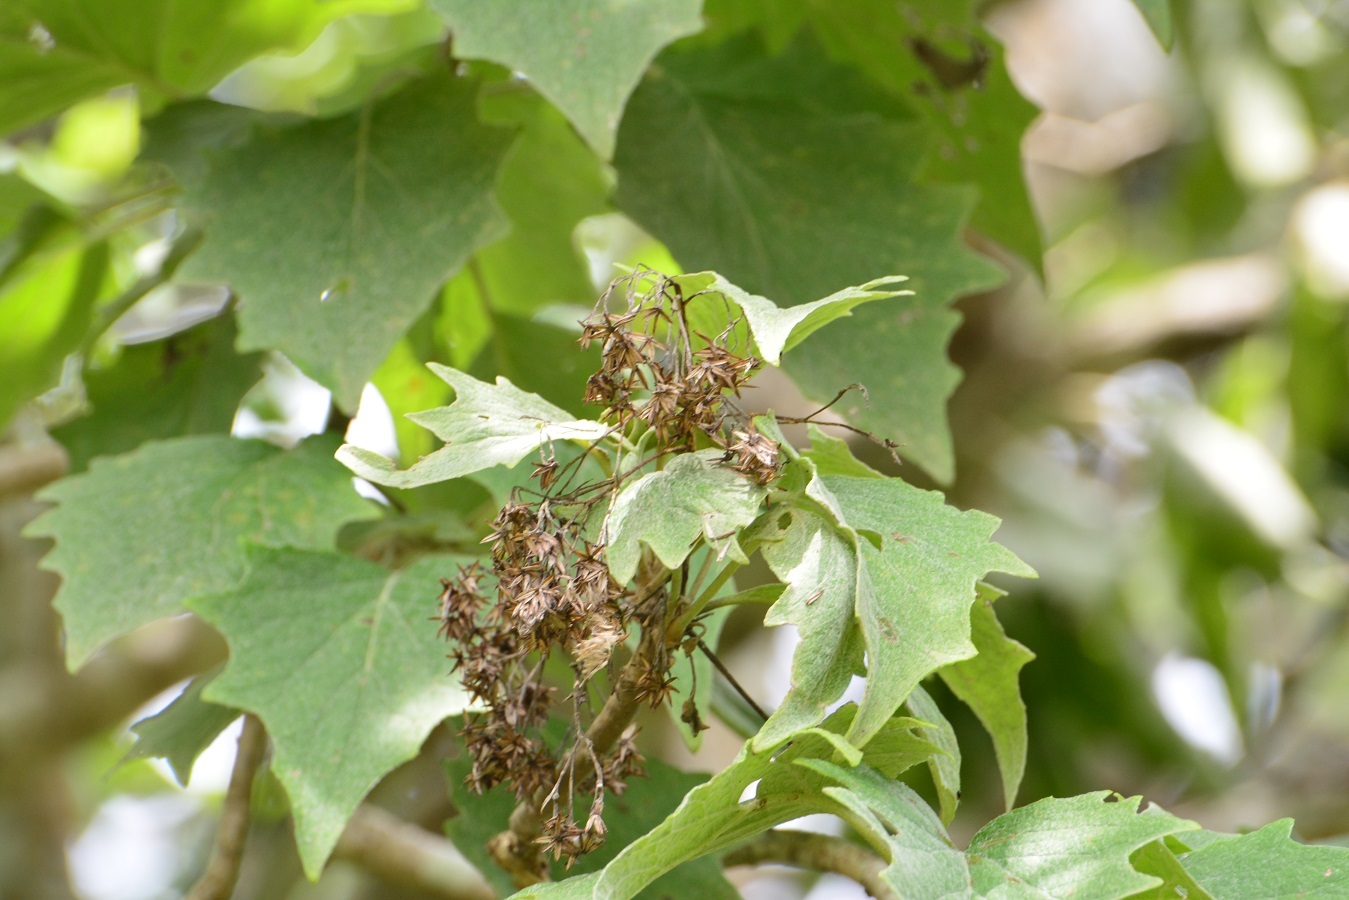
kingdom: Plantae
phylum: Tracheophyta
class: Magnoliopsida
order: Asterales
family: Asteraceae
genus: Pittocaulon
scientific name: Pittocaulon velatum
